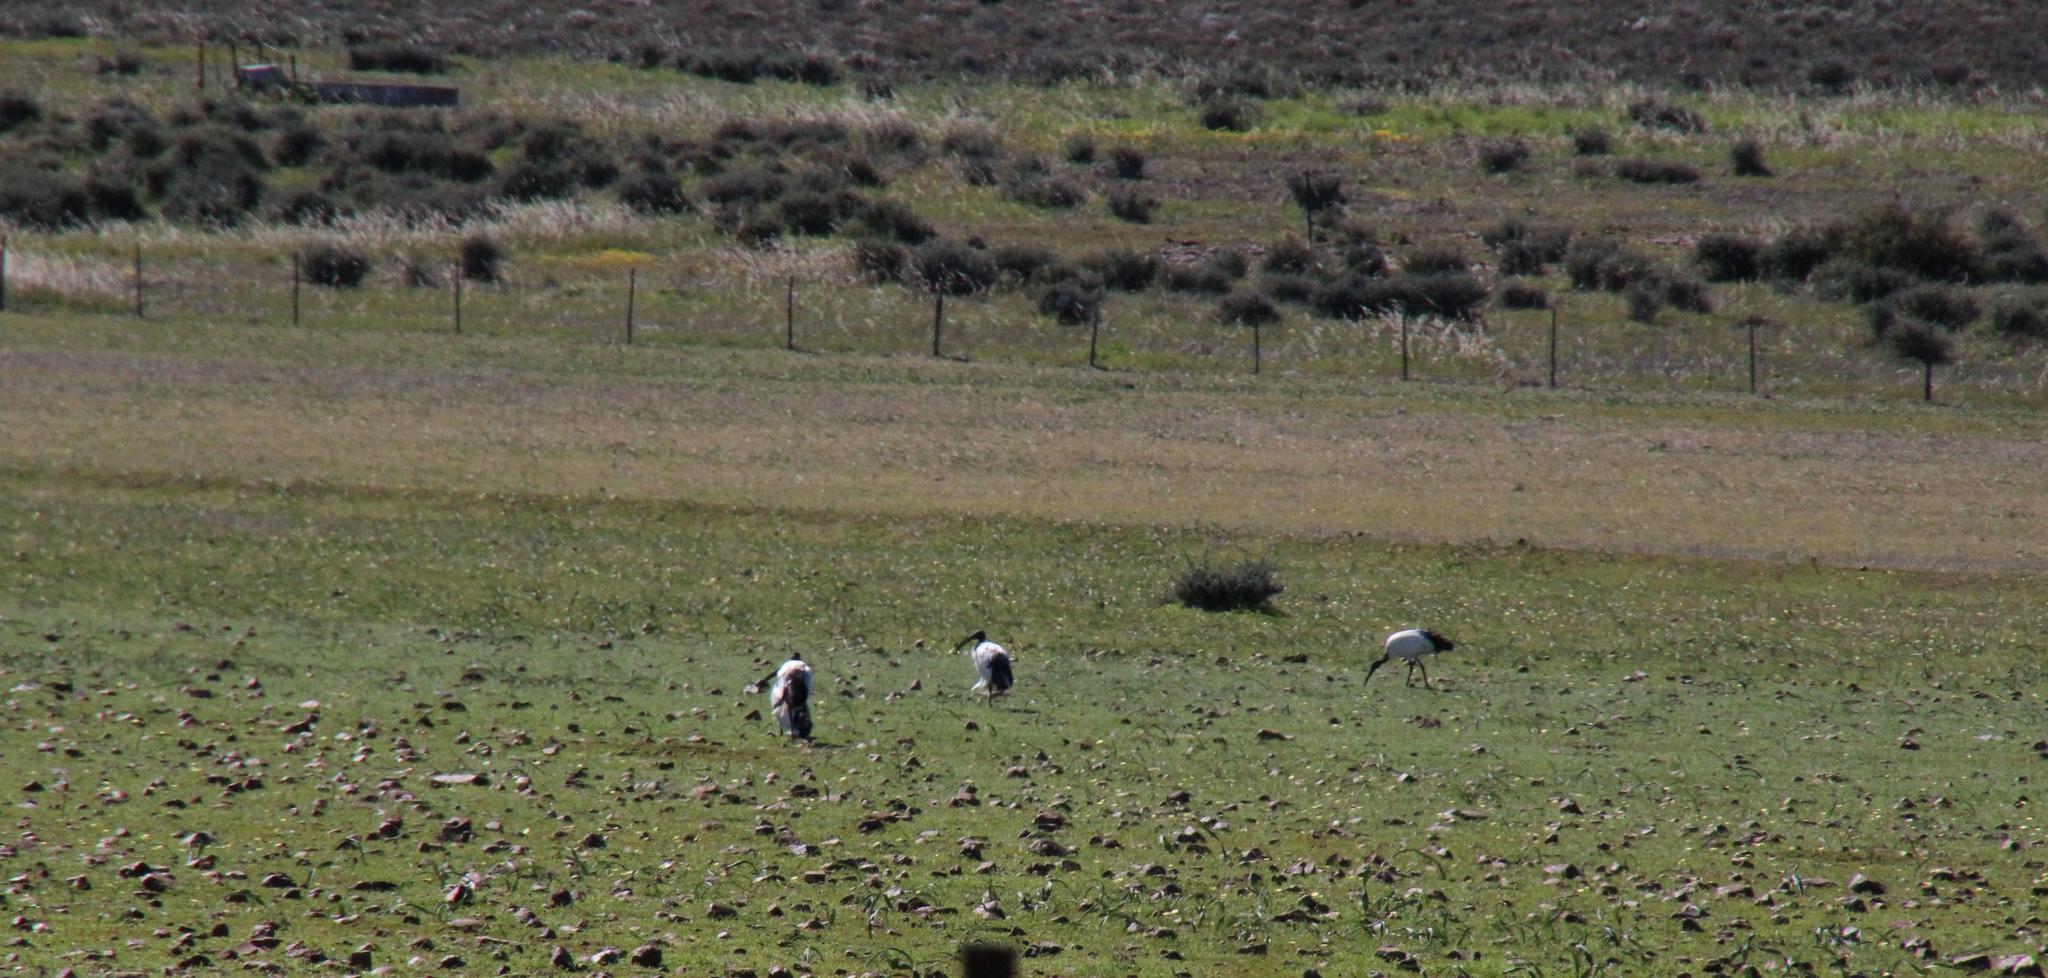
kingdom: Animalia
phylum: Chordata
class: Aves
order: Pelecaniformes
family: Threskiornithidae
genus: Threskiornis
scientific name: Threskiornis aethiopicus
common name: Sacred ibis
